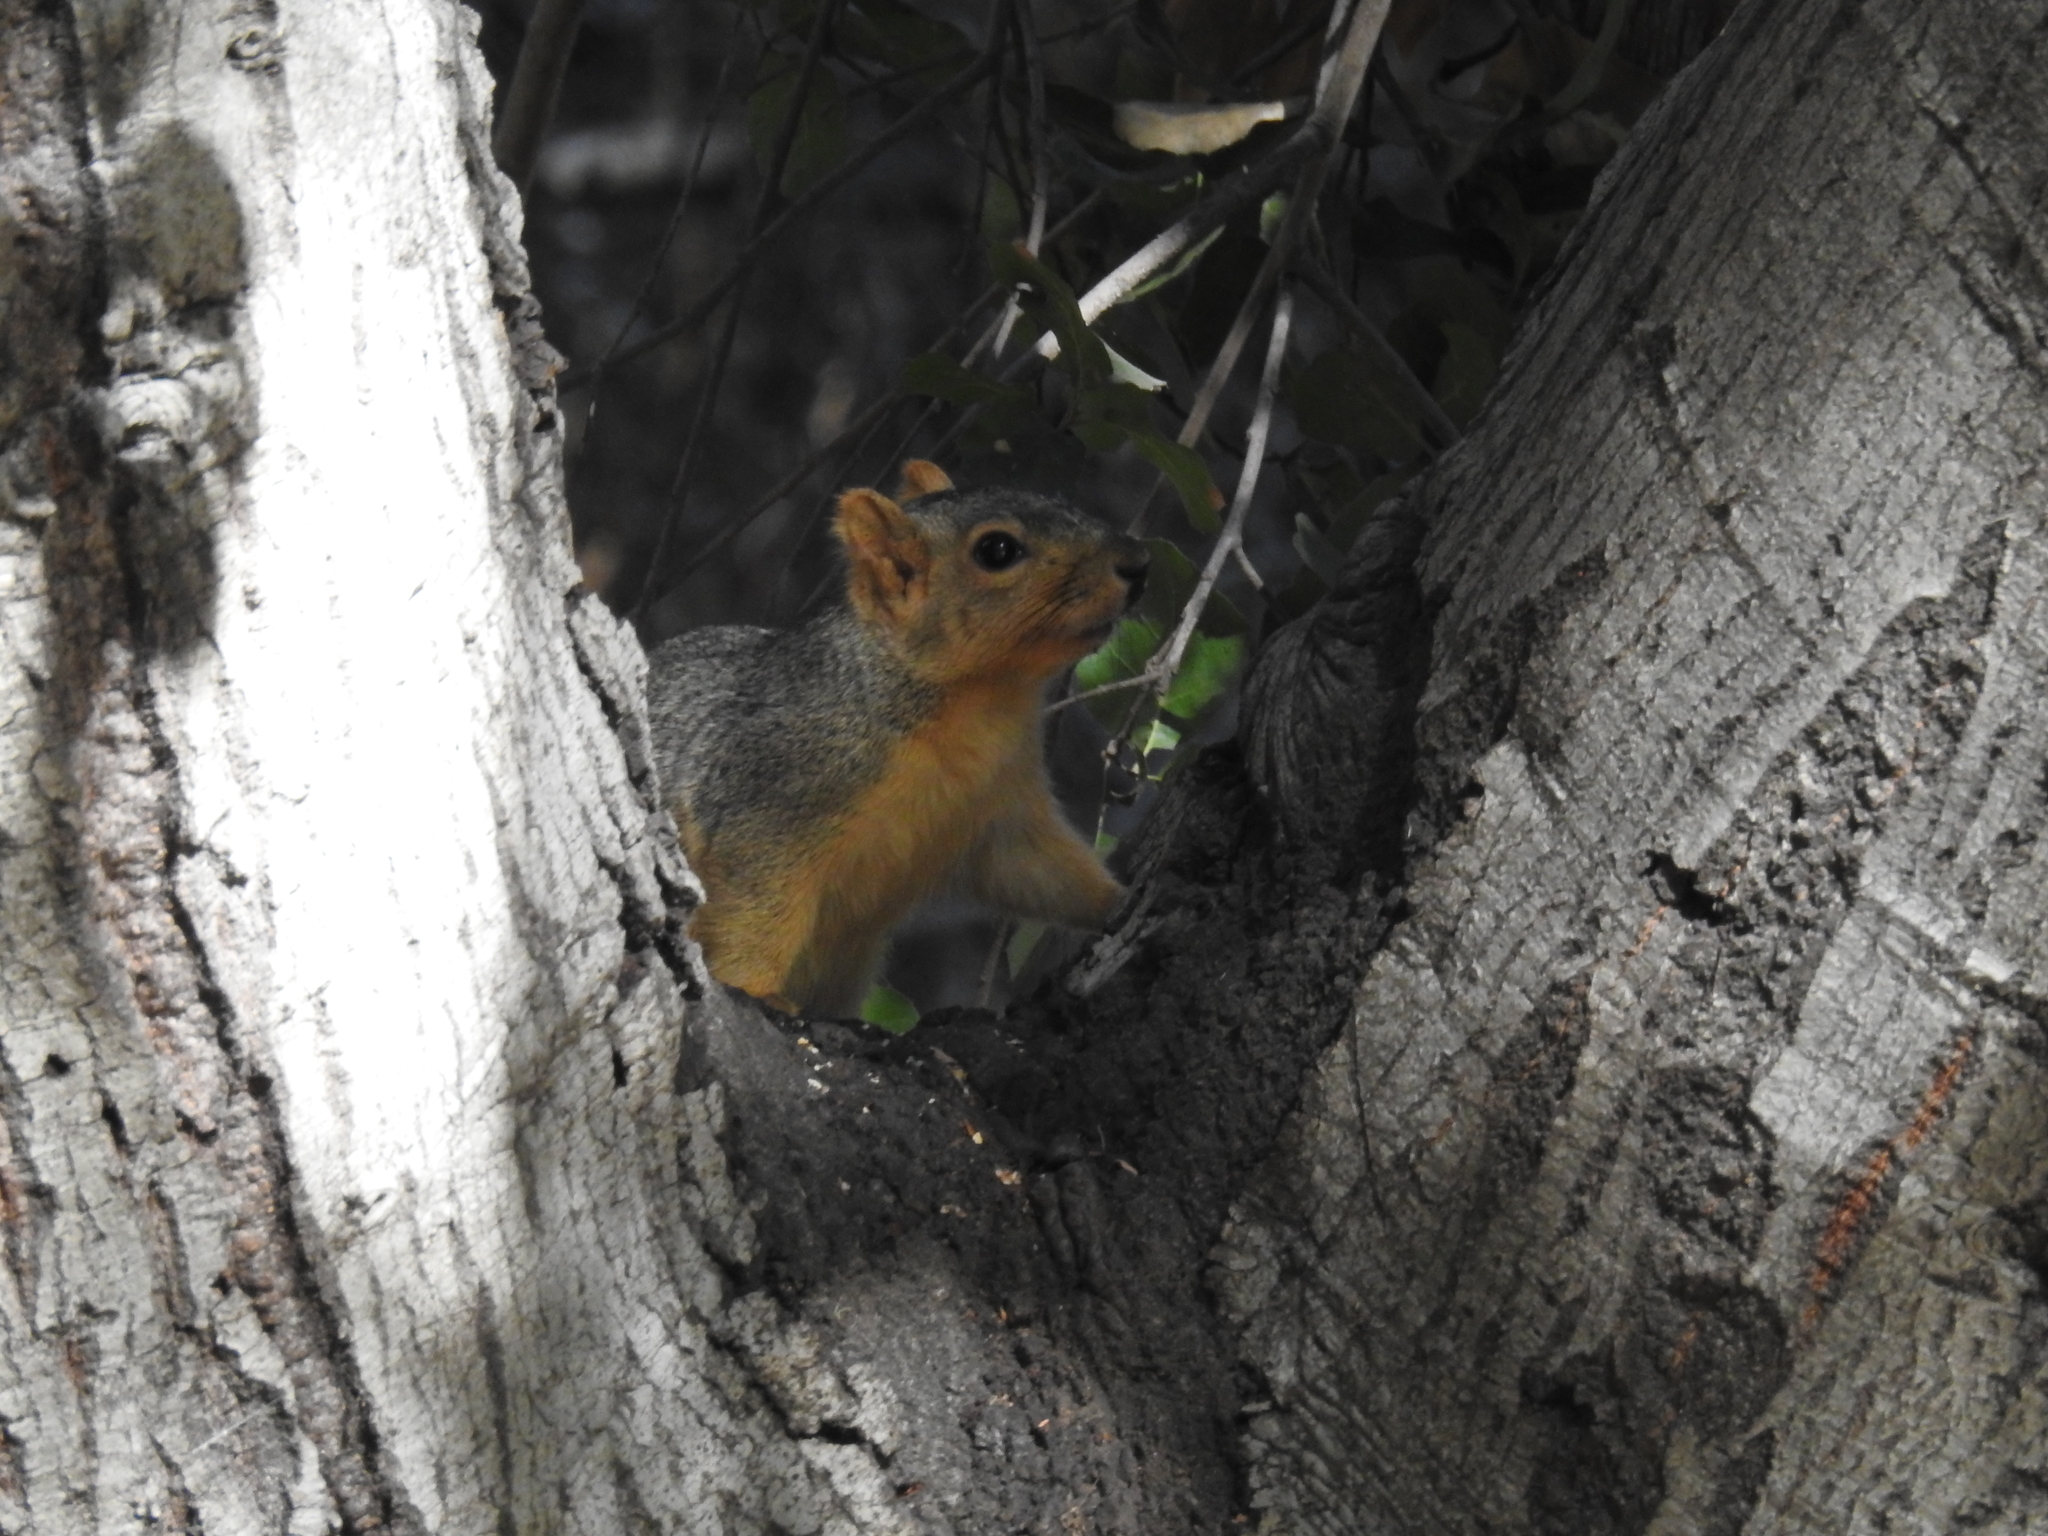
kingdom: Animalia
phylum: Chordata
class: Mammalia
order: Rodentia
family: Sciuridae
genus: Sciurus
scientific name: Sciurus niger
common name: Fox squirrel
